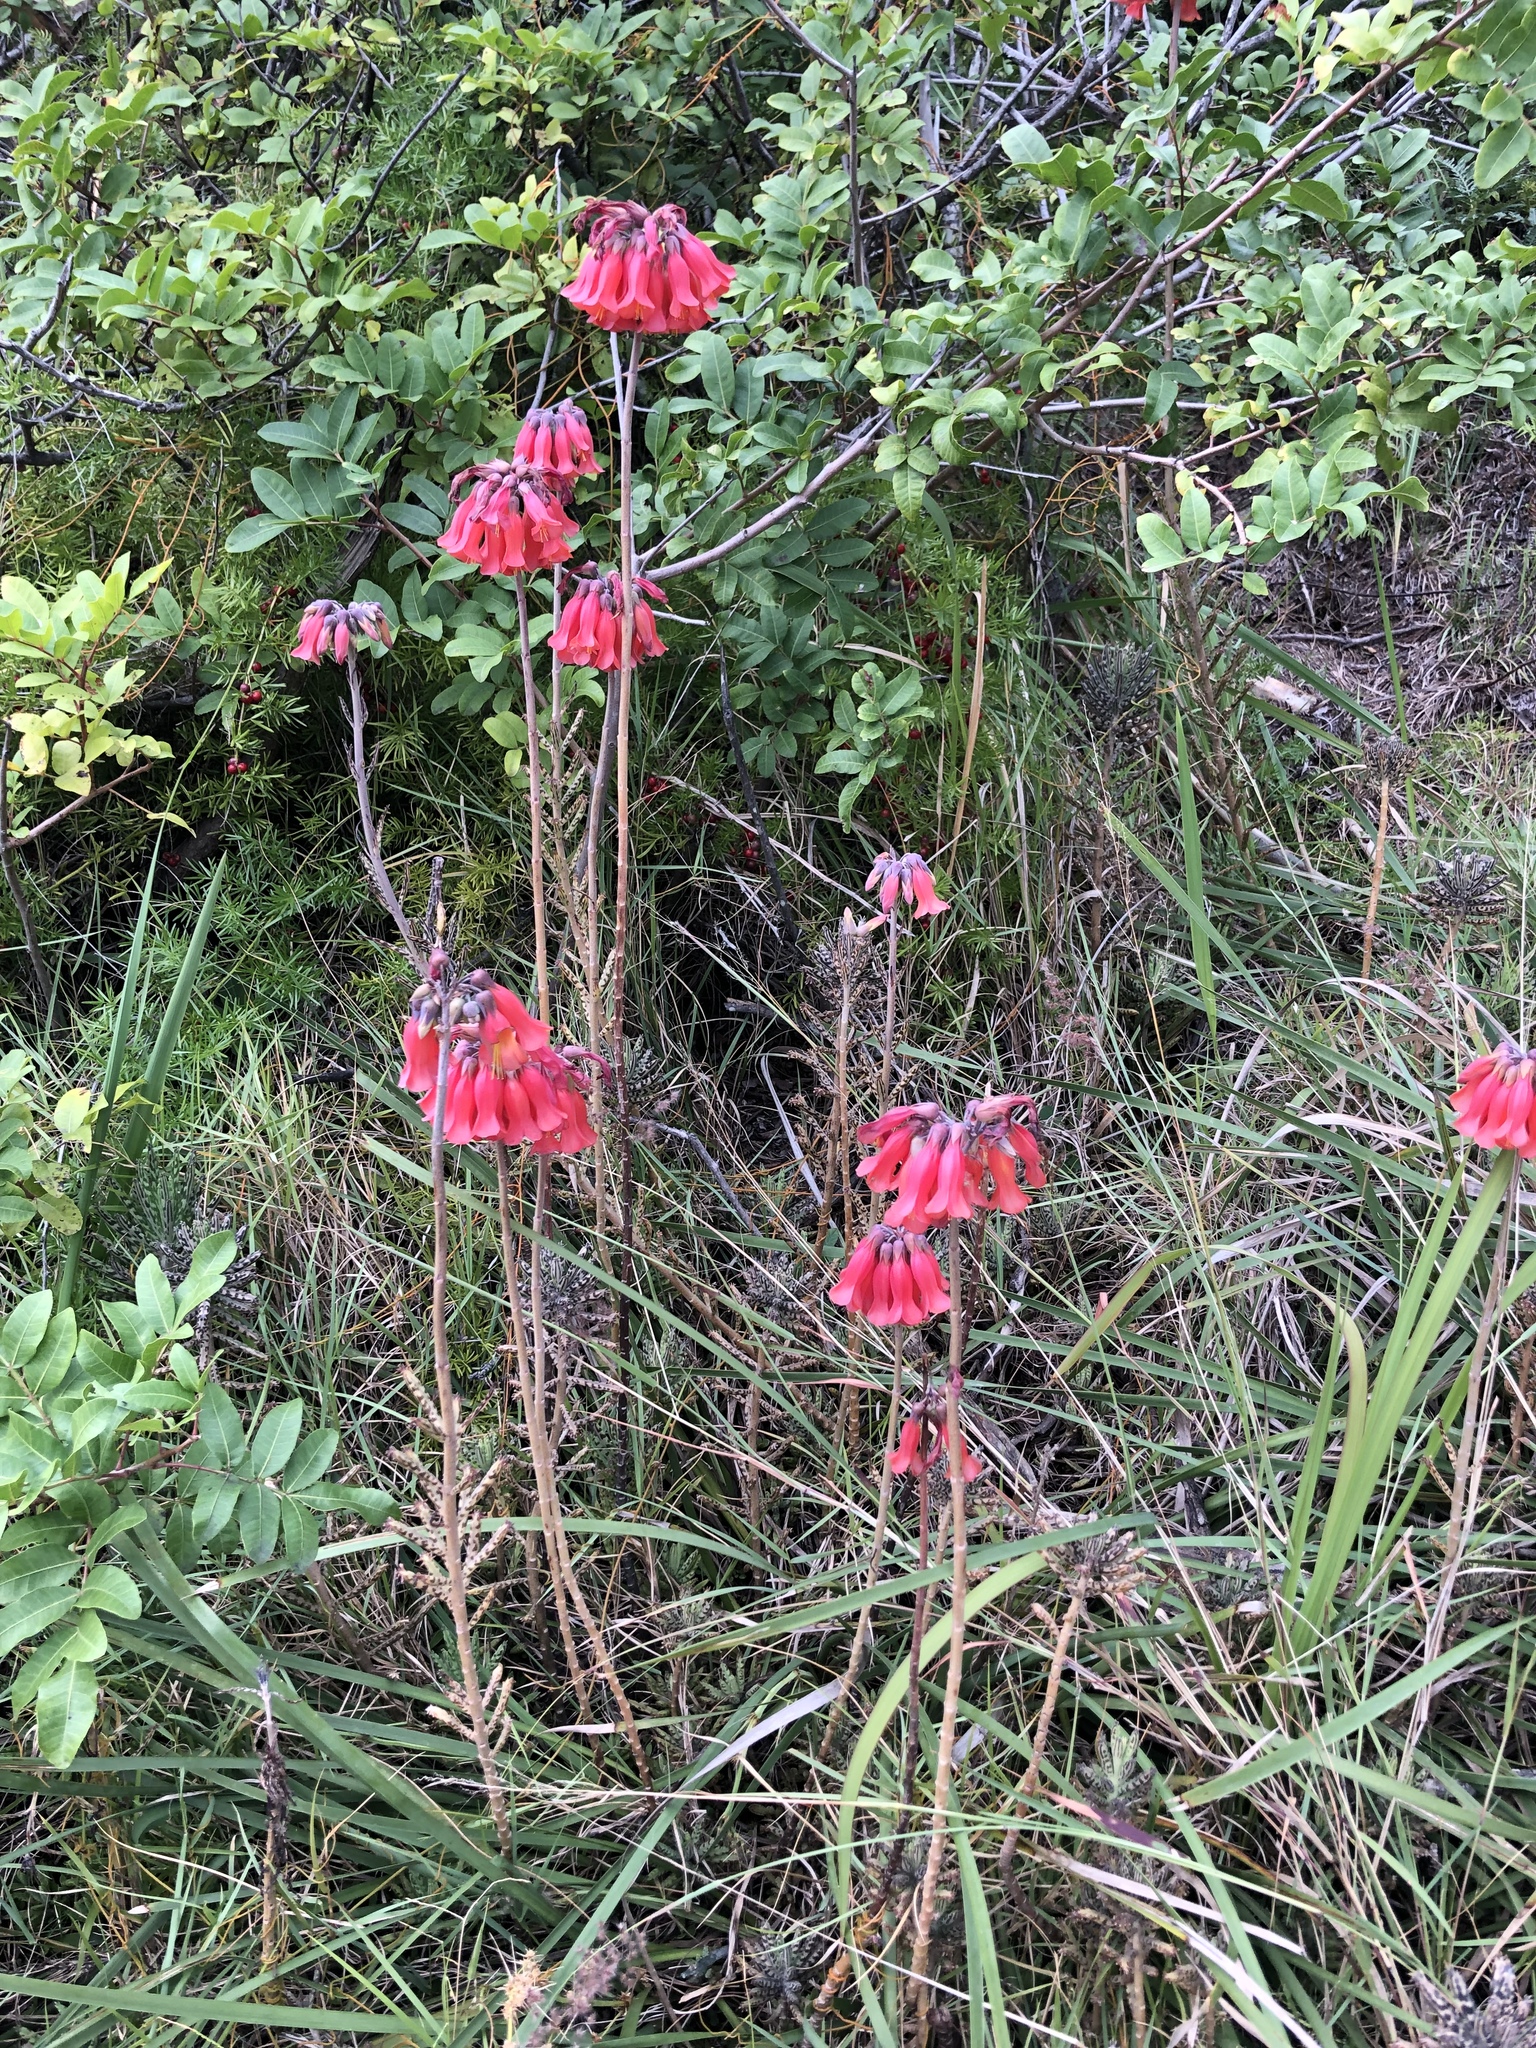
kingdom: Plantae
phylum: Tracheophyta
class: Magnoliopsida
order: Saxifragales
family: Crassulaceae
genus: Kalanchoe
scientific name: Kalanchoe delagoensis
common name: Chandelier plant
